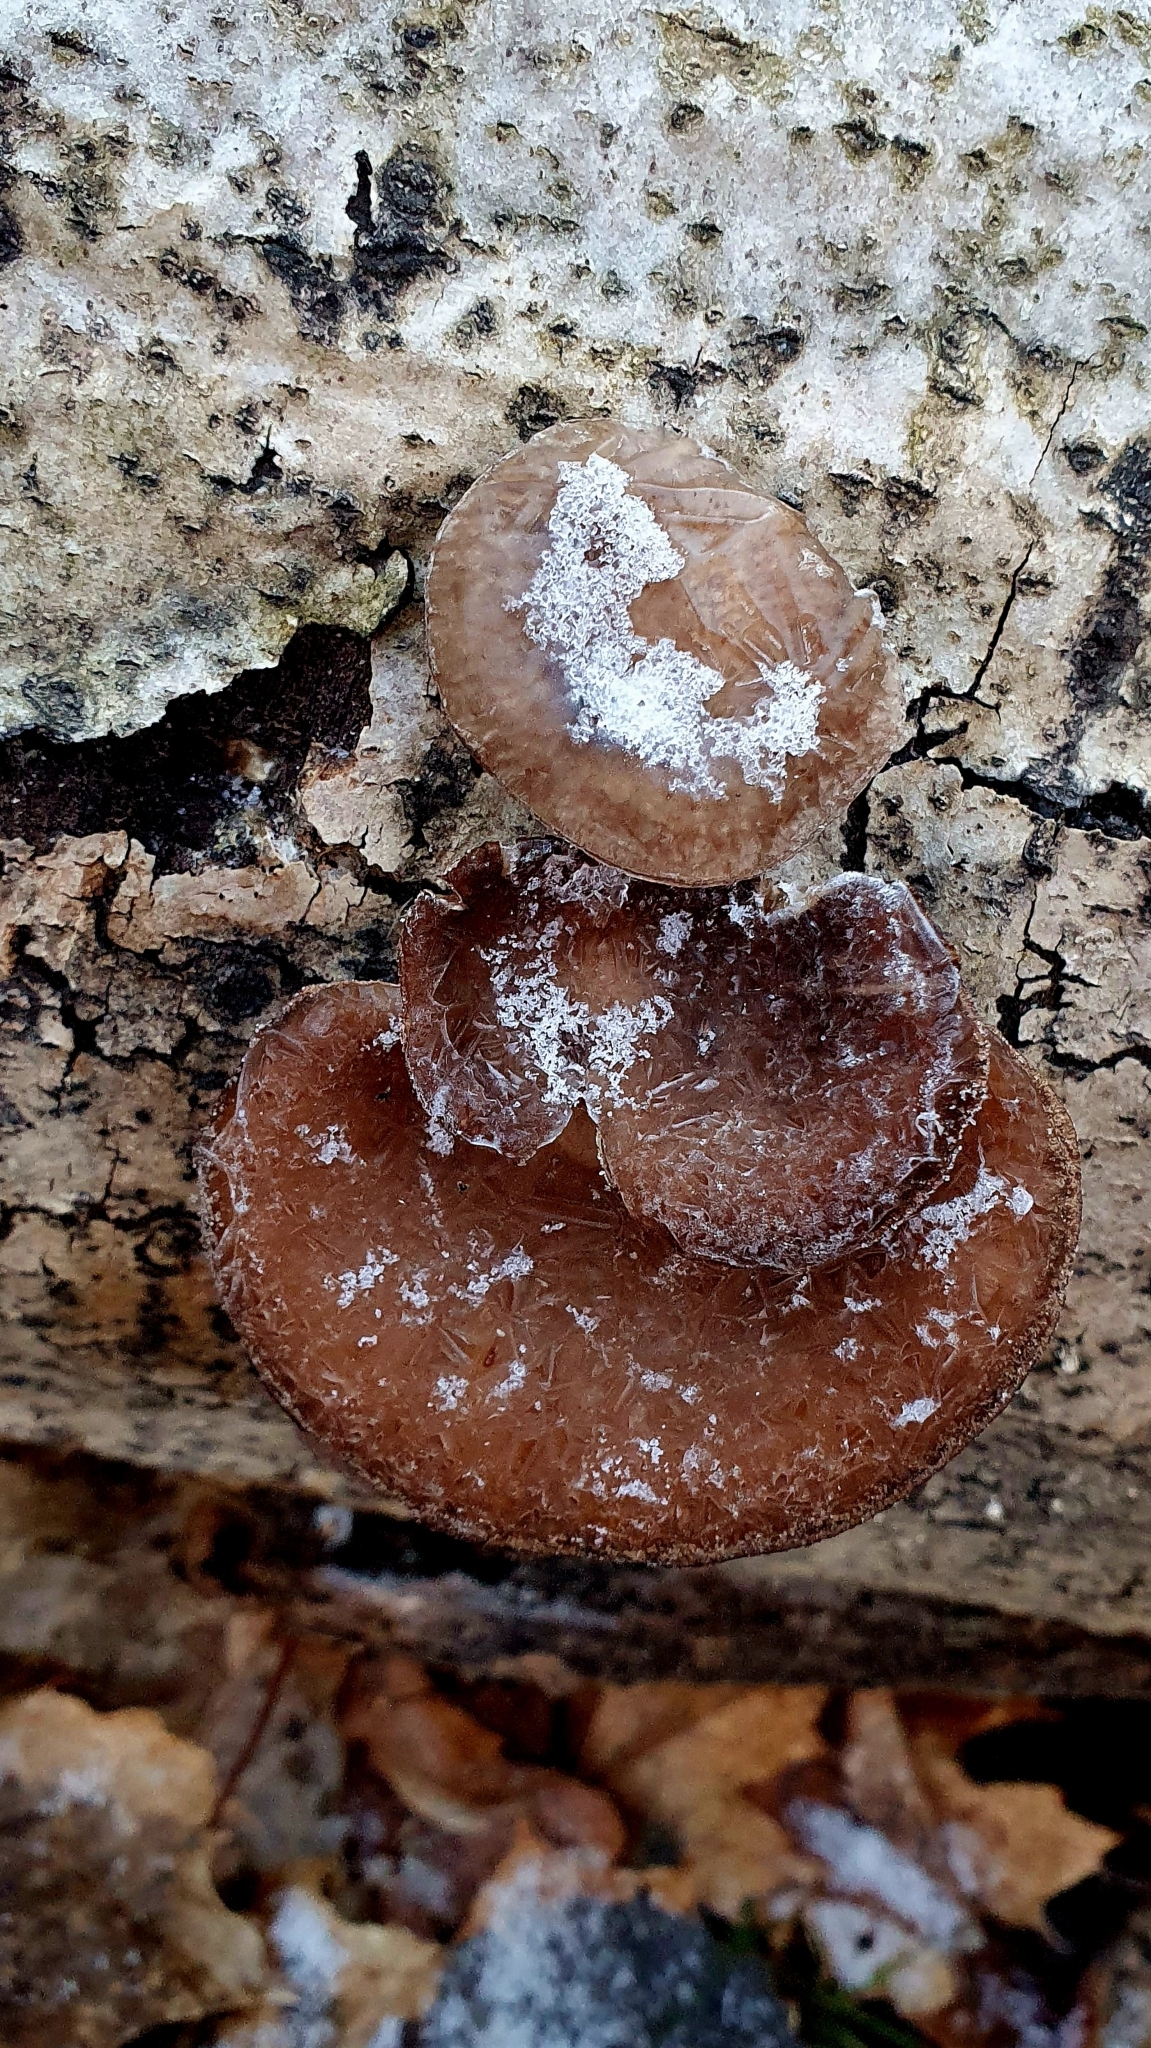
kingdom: Fungi
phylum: Basidiomycota
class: Agaricomycetes
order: Agaricales
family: Pleurotaceae
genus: Pleurotus
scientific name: Pleurotus ostreatus
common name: Oyster mushroom
